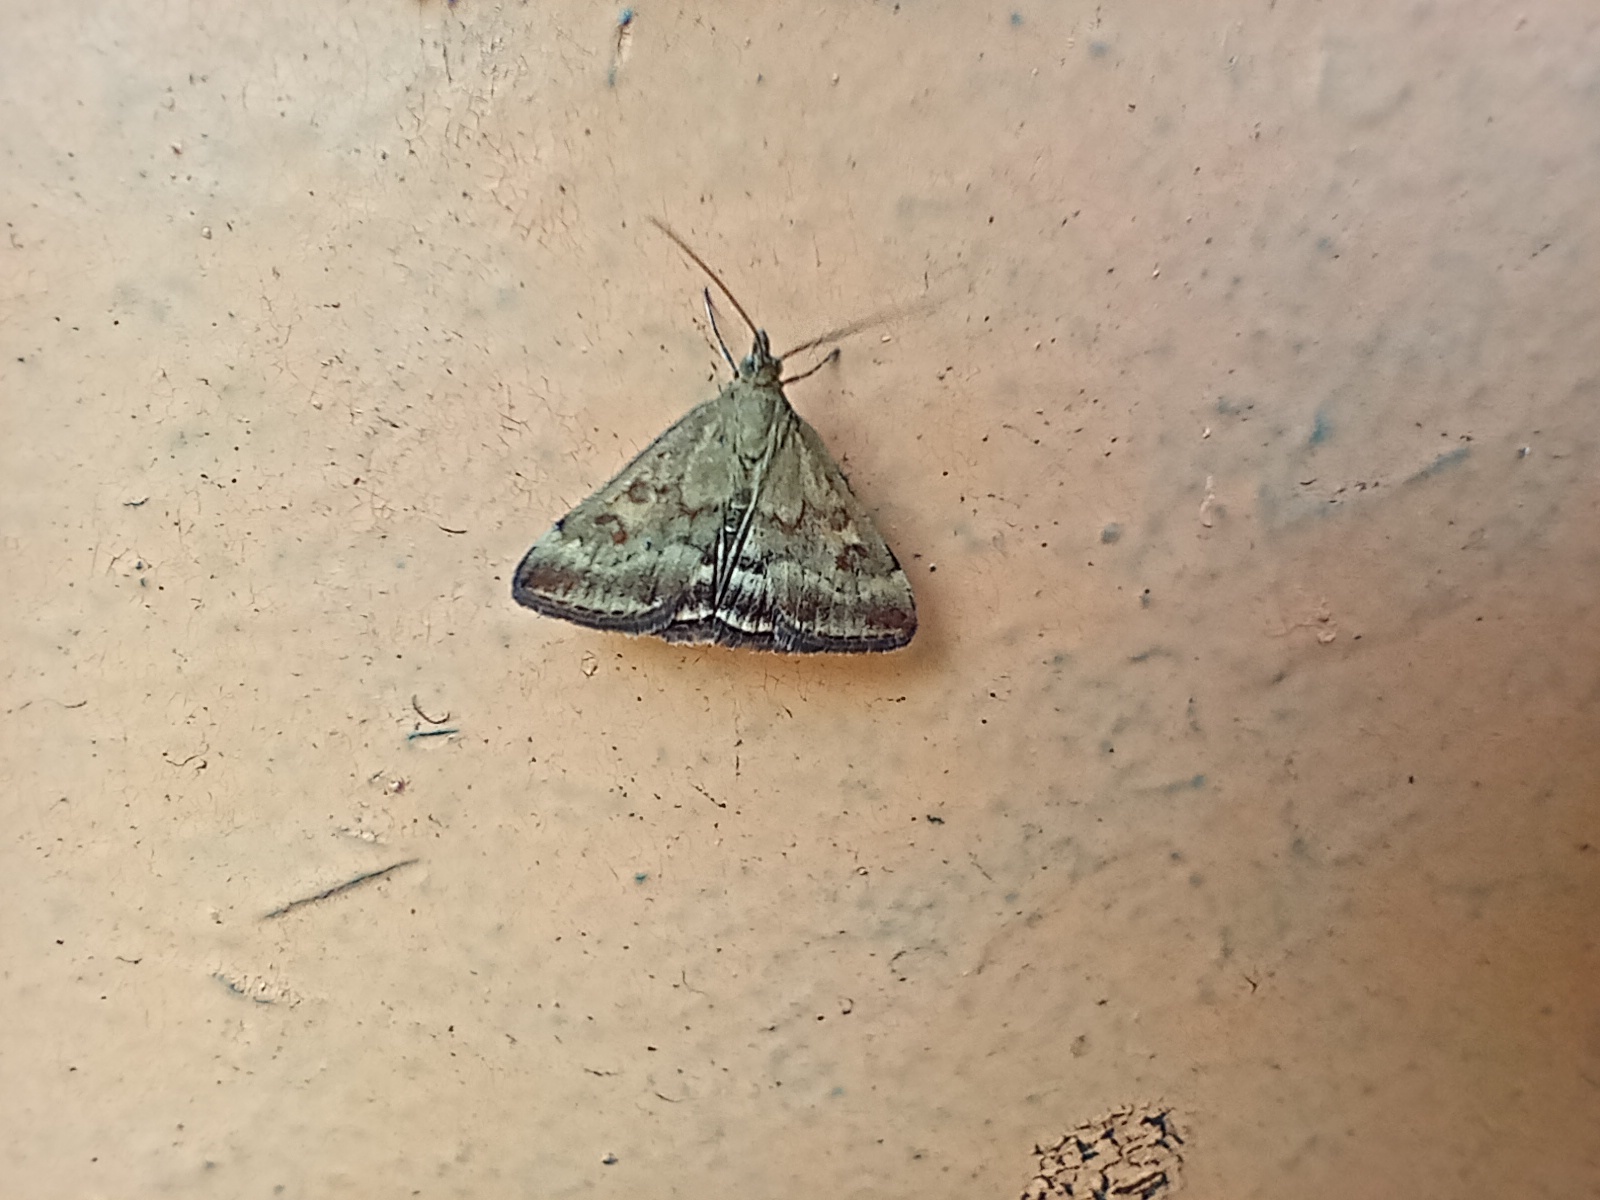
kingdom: Animalia
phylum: Arthropoda
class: Insecta
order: Lepidoptera
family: Crambidae
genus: Pyrausta
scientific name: Pyrausta despicata
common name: Straw-barred pearl
